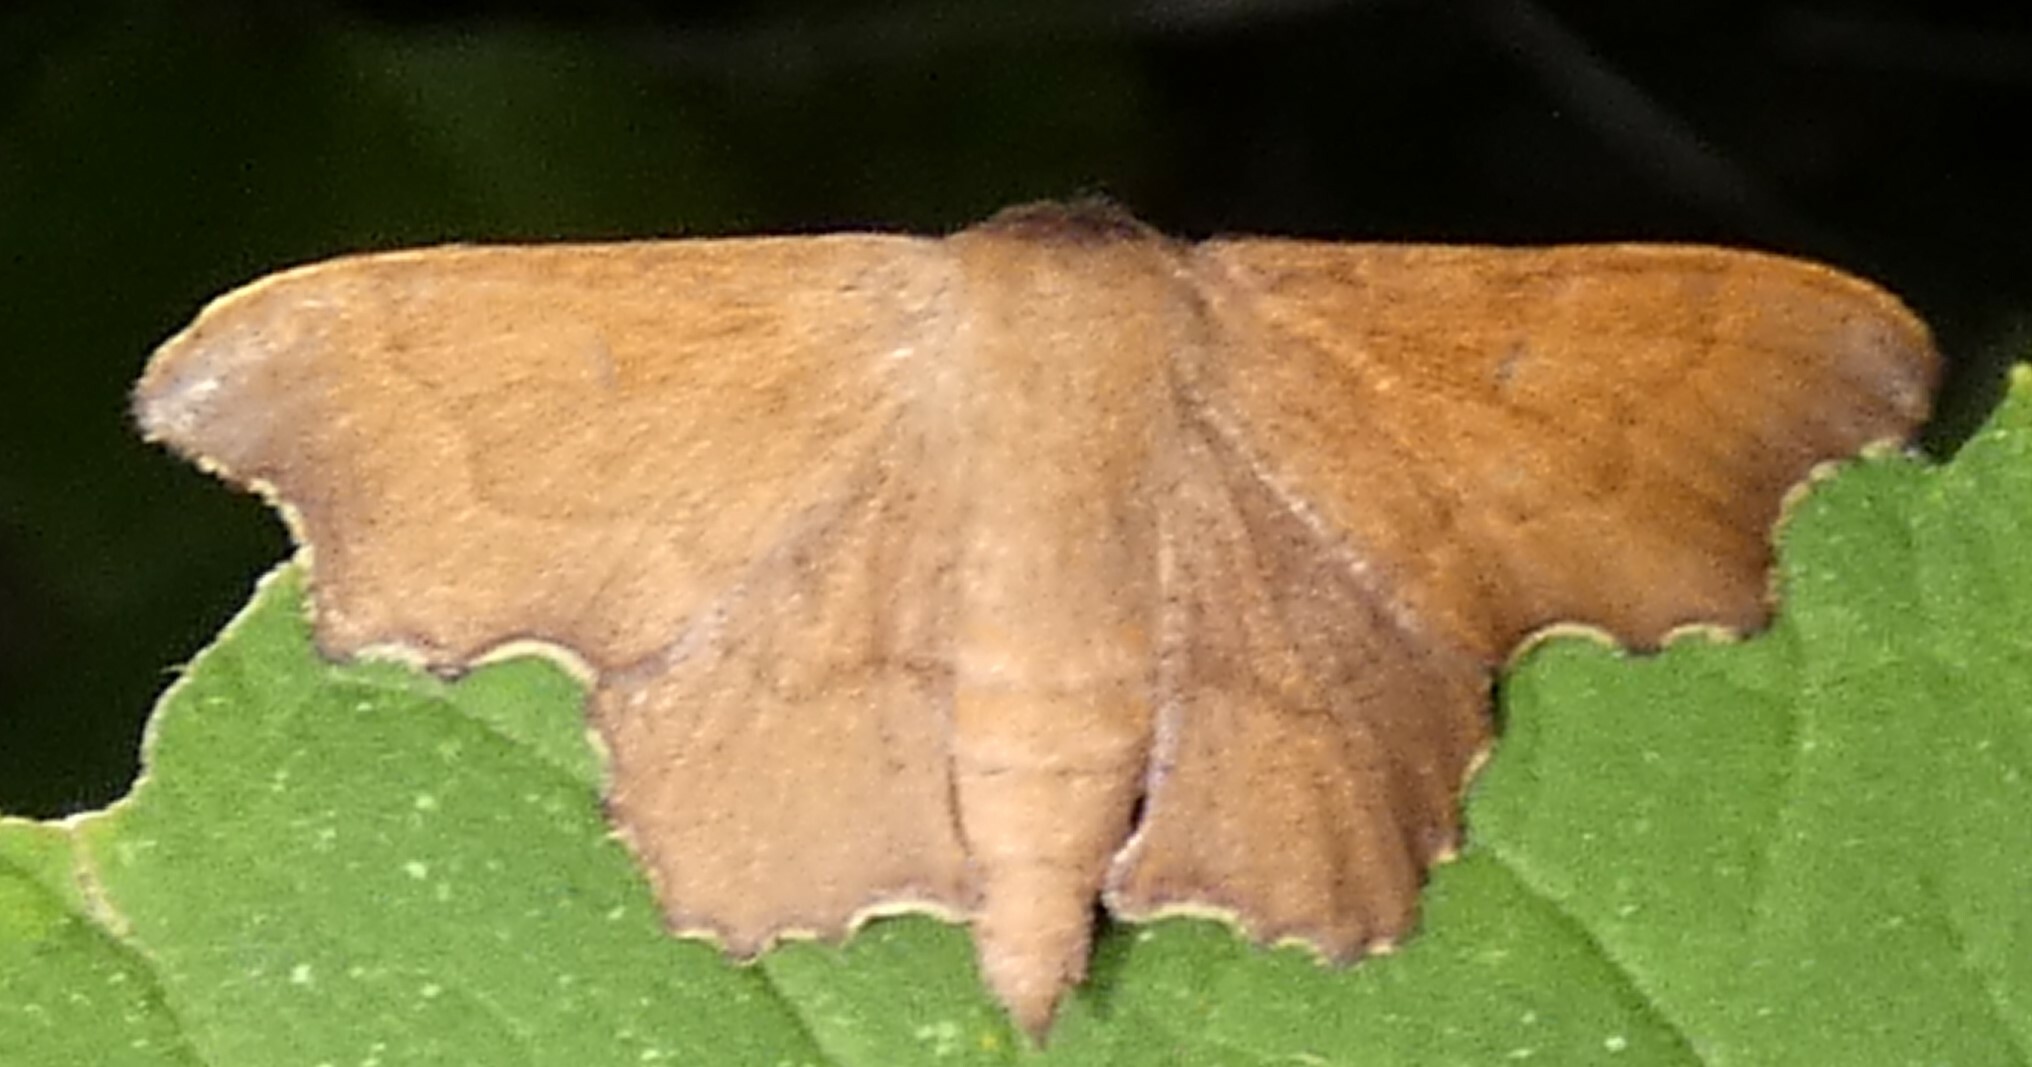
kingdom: Animalia
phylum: Arthropoda
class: Insecta
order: Lepidoptera
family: Mimallonidae
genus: Lacosoma
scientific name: Lacosoma chiridota
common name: Scalloped sack-bearer moth
